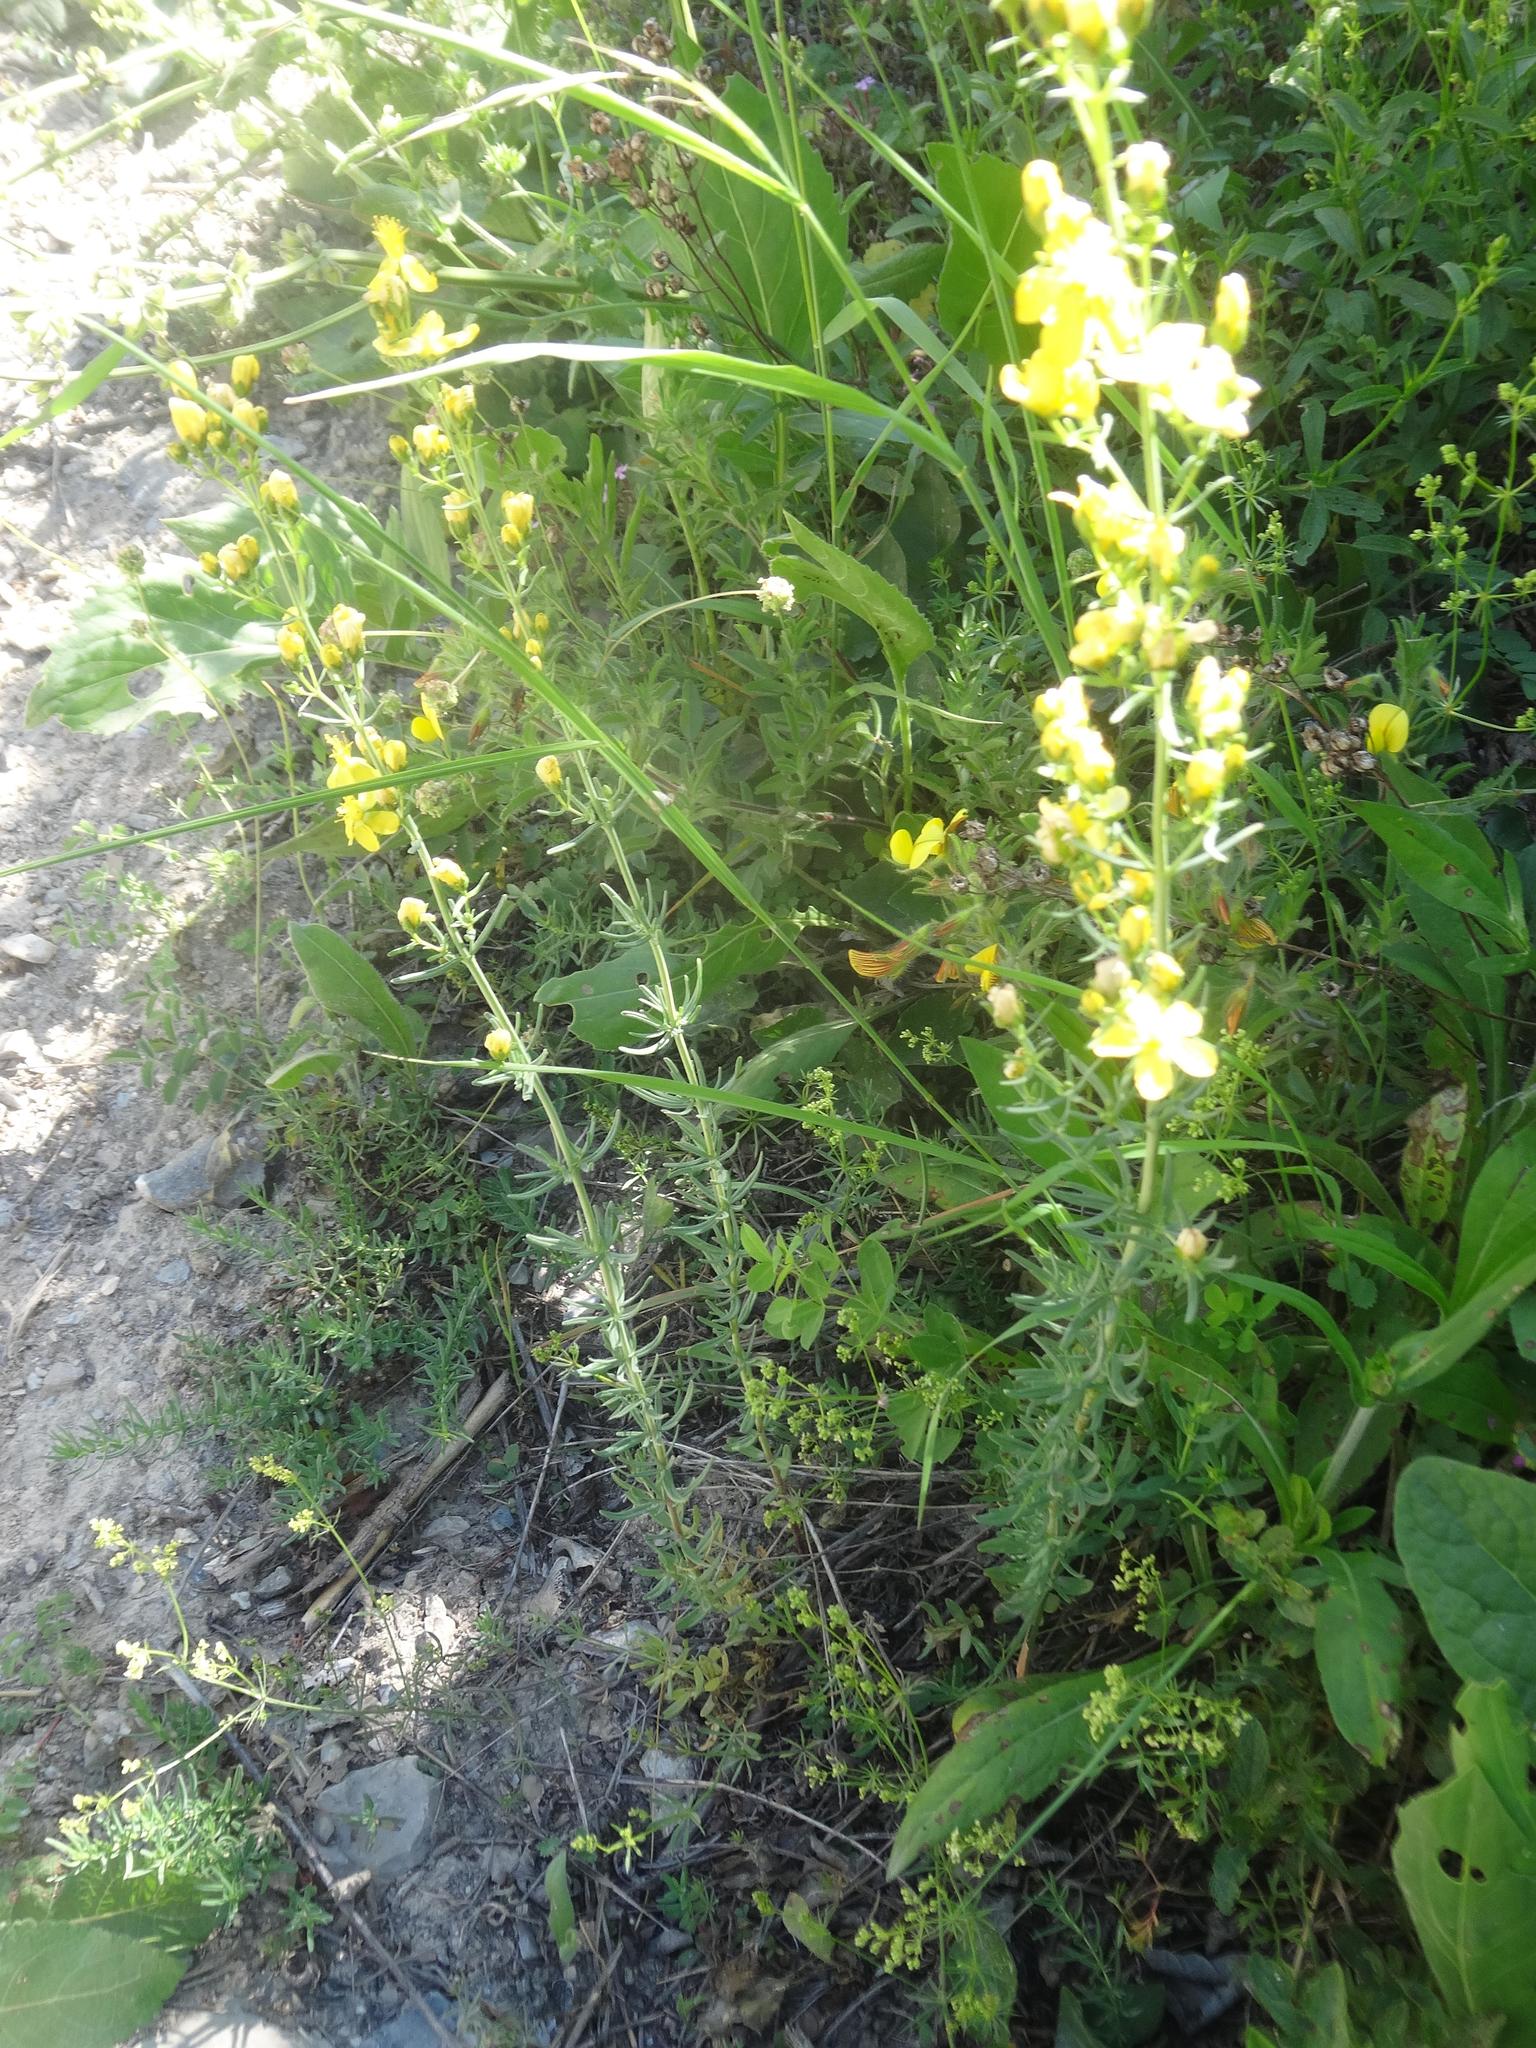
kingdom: Plantae
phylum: Tracheophyta
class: Magnoliopsida
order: Malpighiales
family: Hypericaceae
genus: Hypericum
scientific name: Hypericum hyssopifolium
